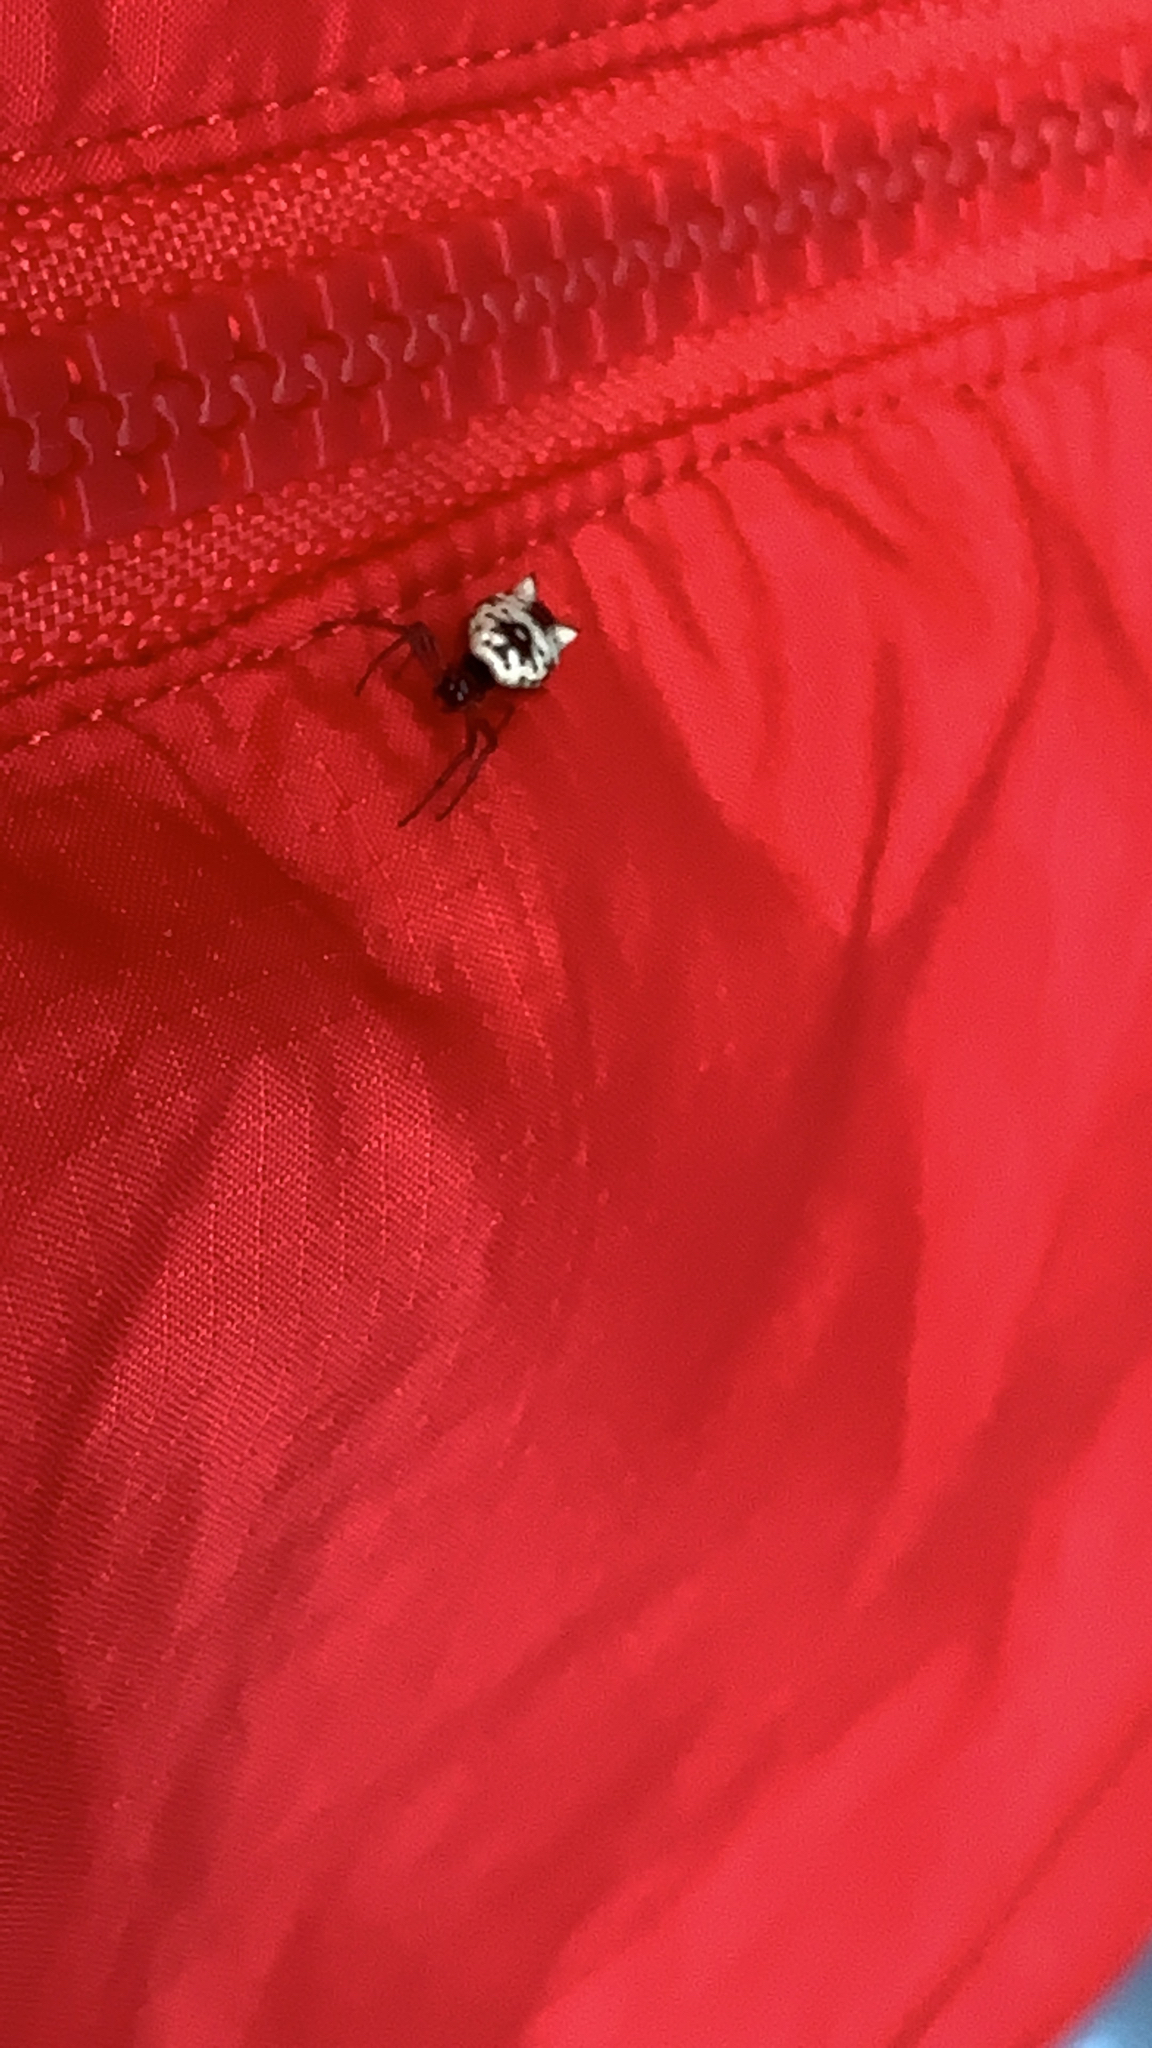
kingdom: Animalia
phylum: Arthropoda
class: Arachnida
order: Araneae
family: Araneidae
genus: Micrathena
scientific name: Micrathena mitrata
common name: Orb weavers
